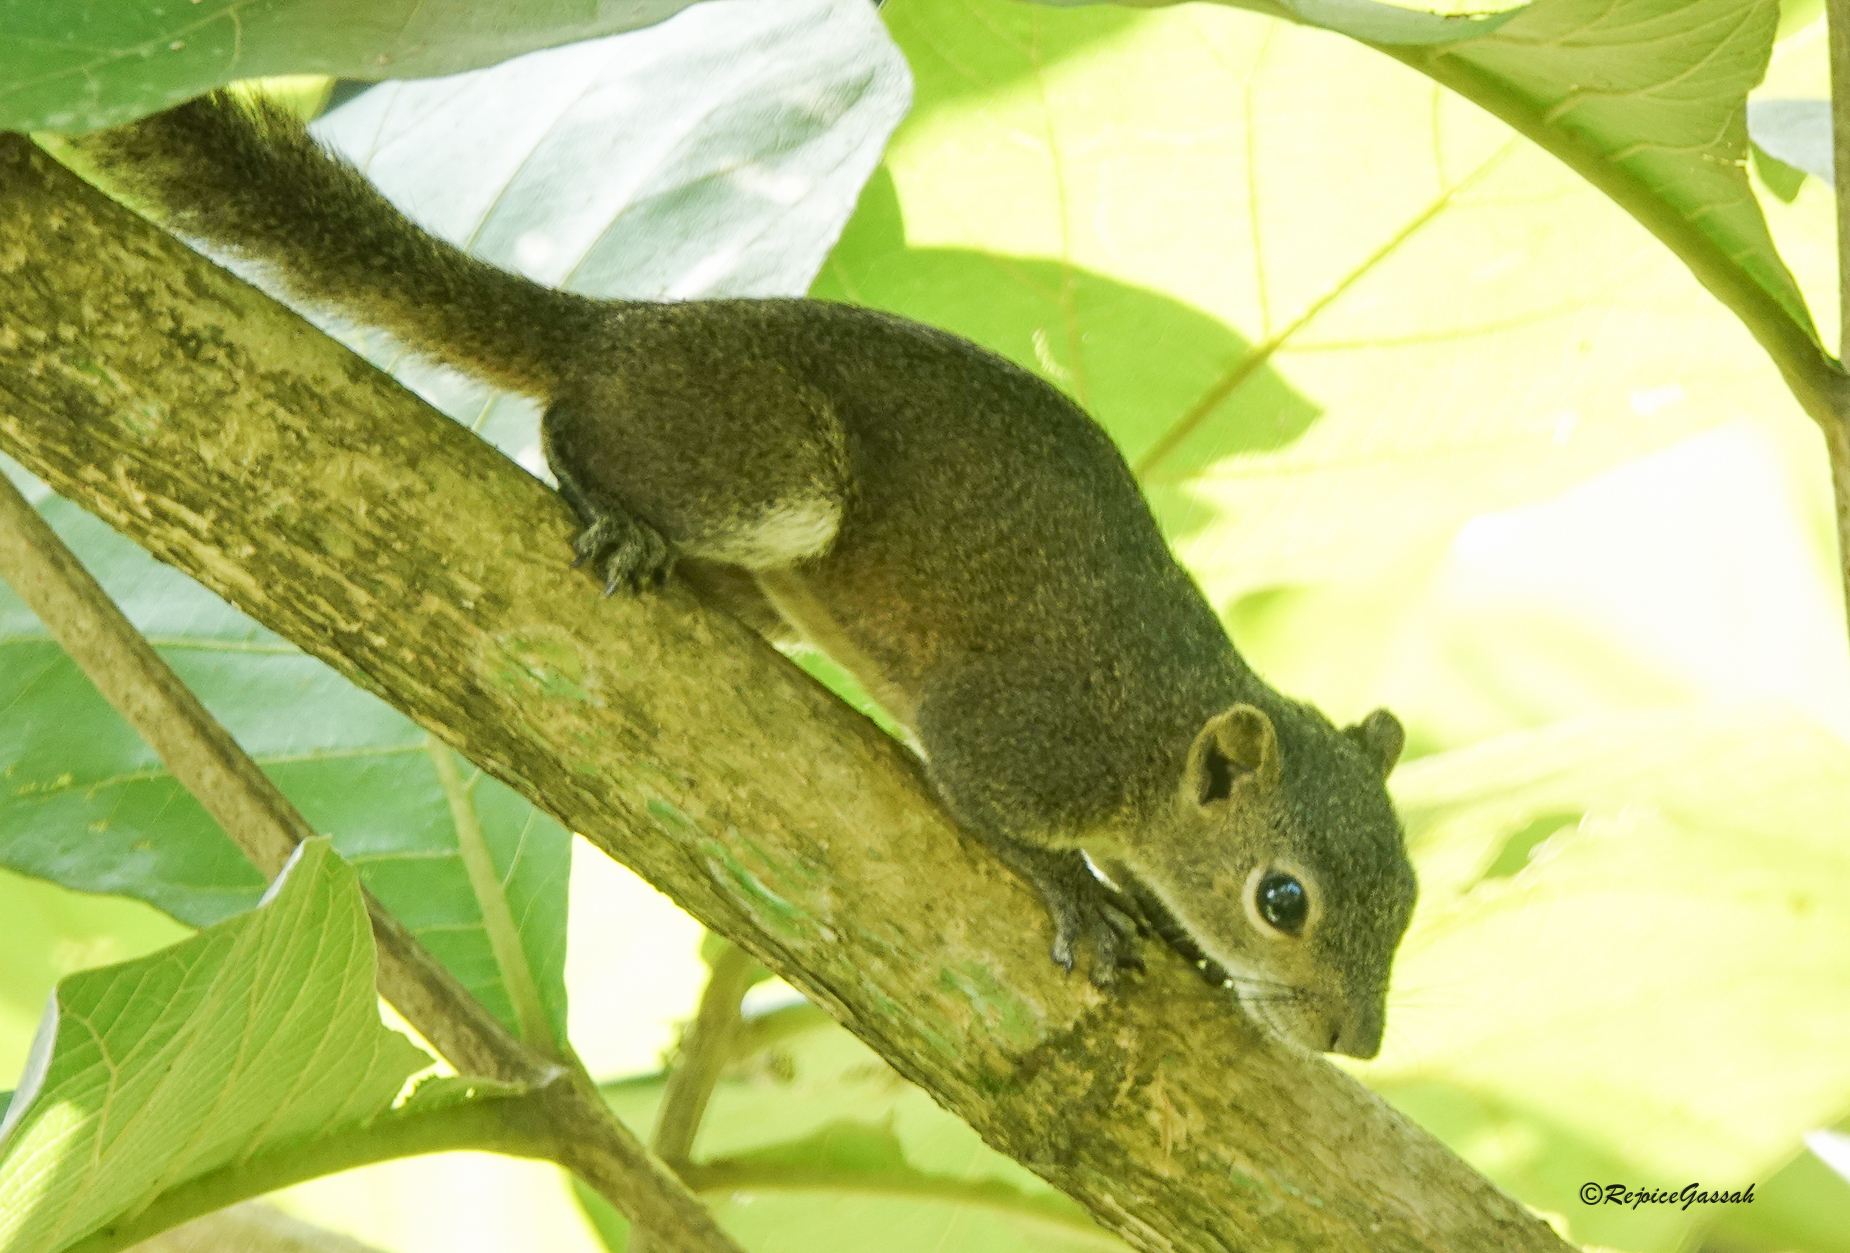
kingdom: Animalia
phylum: Chordata
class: Mammalia
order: Rodentia
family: Sciuridae
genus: Callosciurus
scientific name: Callosciurus pygerythrus
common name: Irrawaddy squirrel
